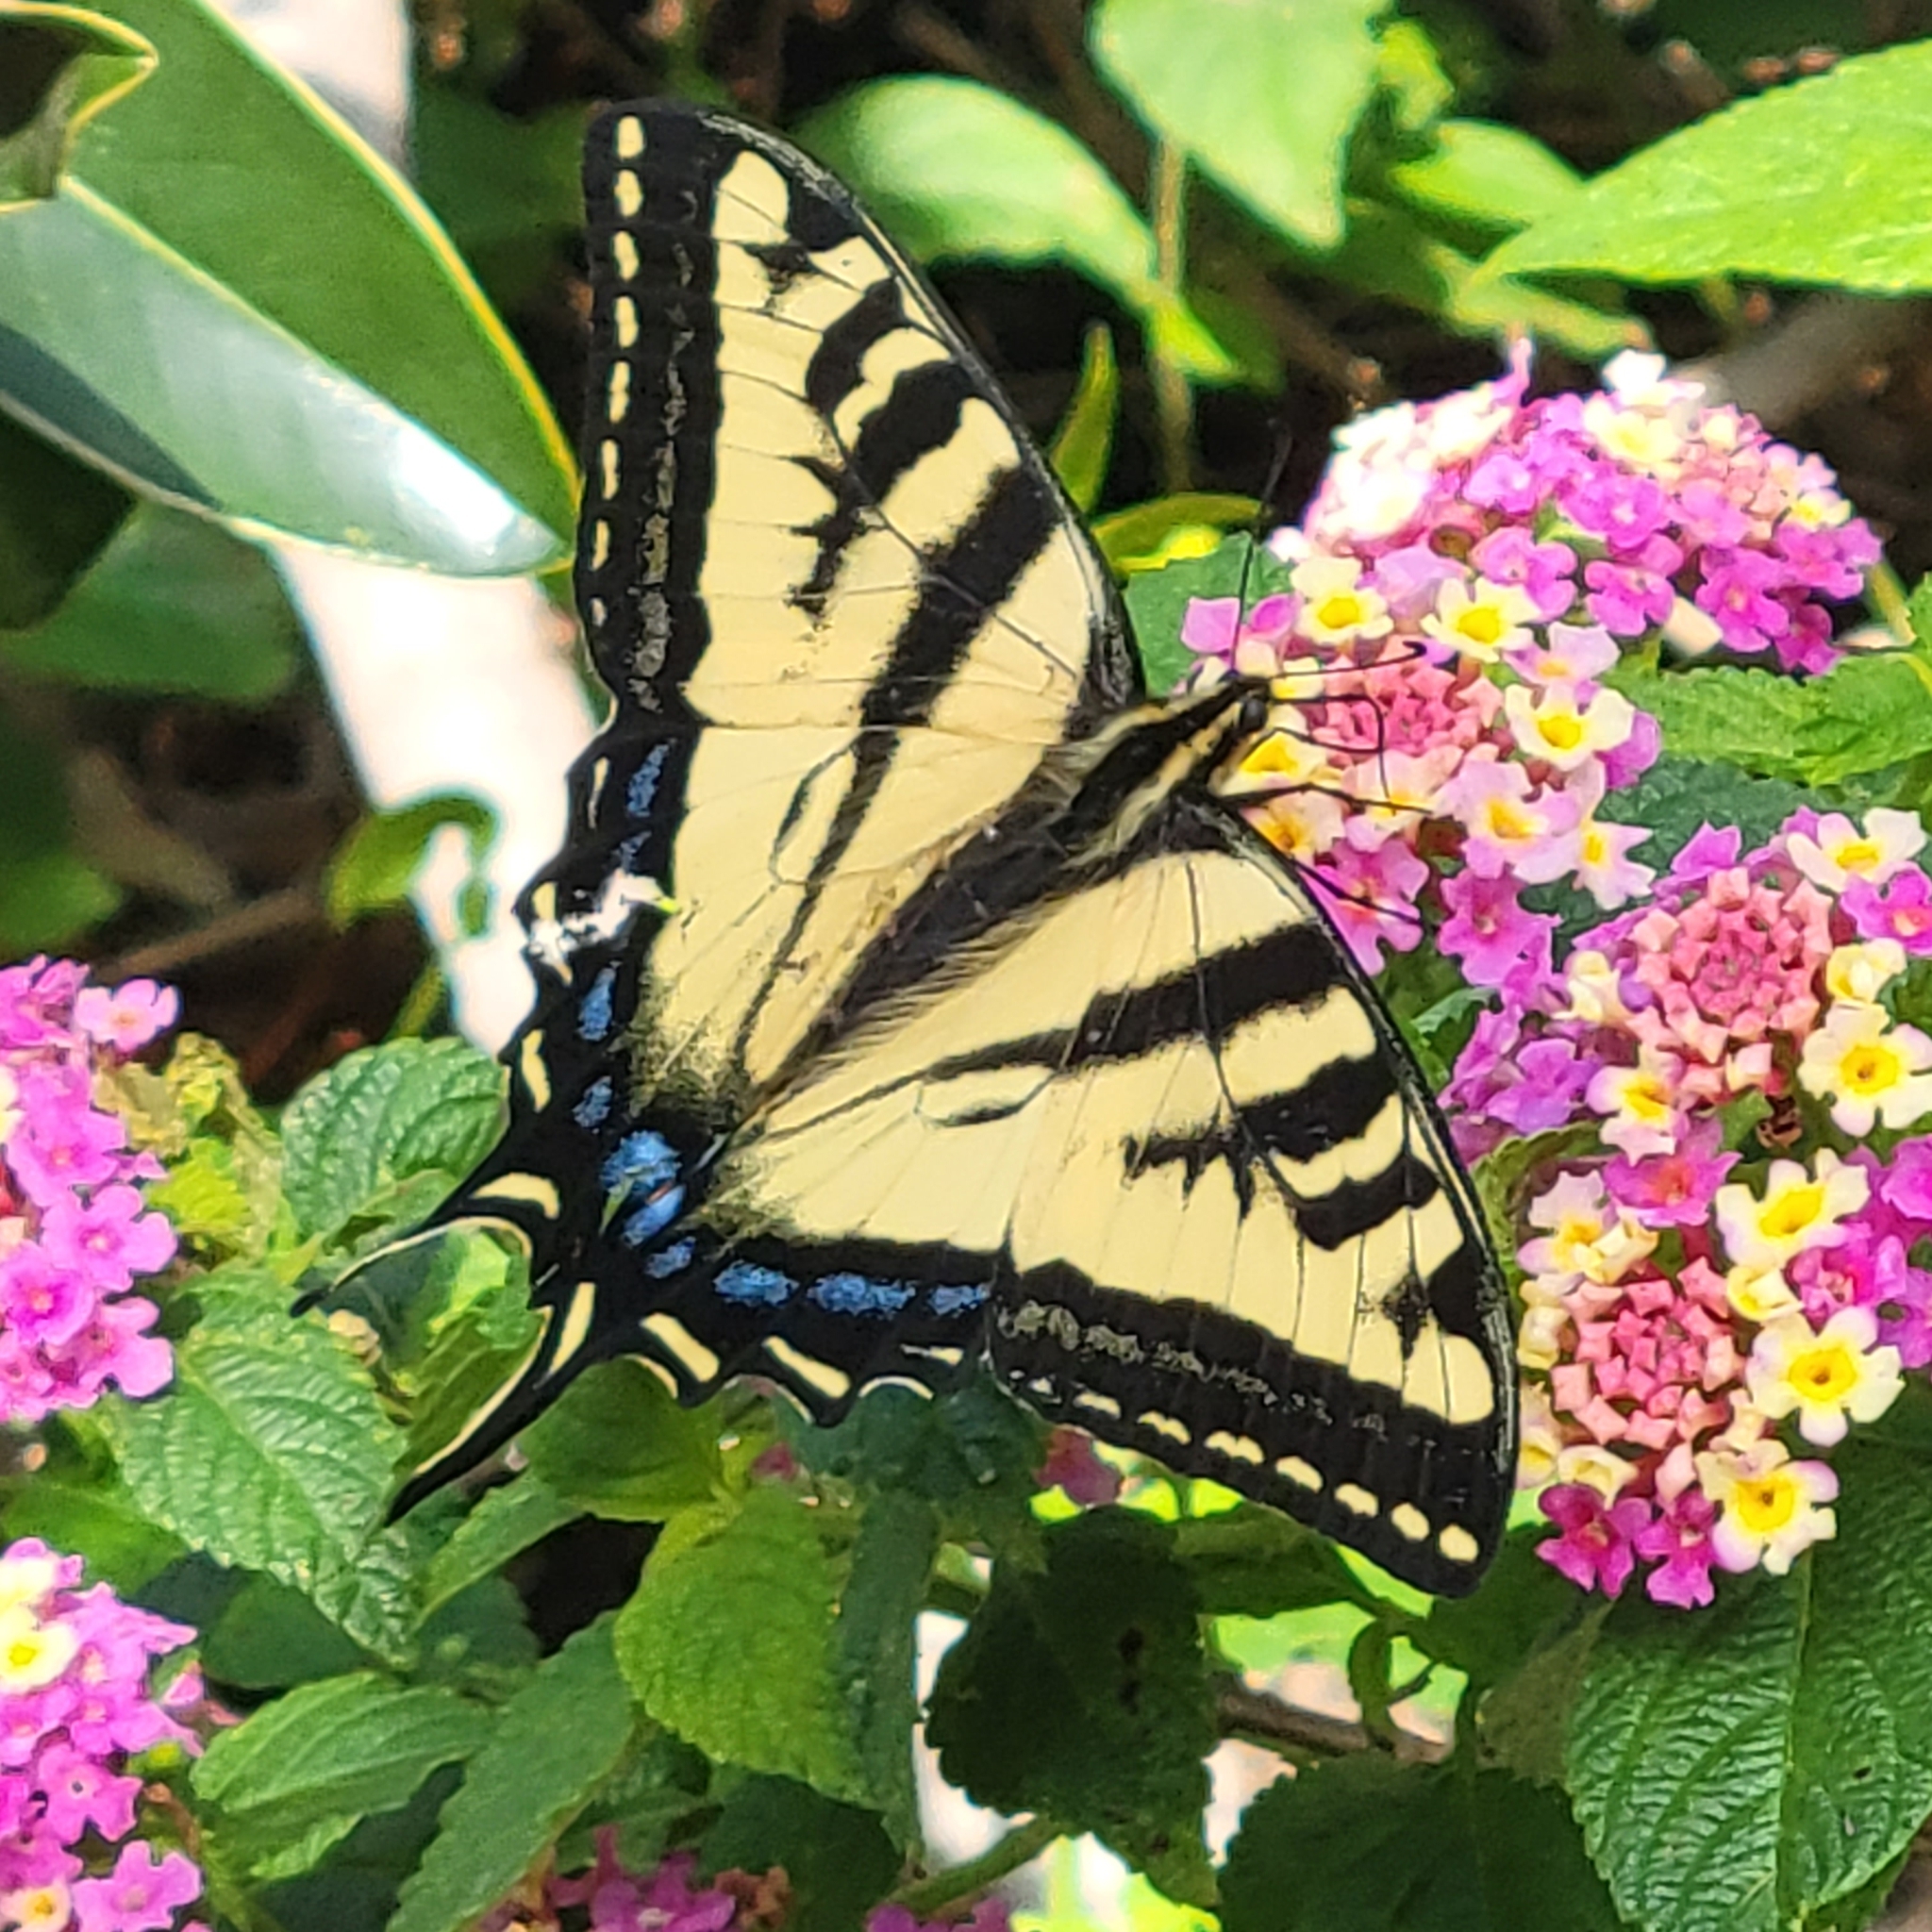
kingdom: Animalia
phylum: Arthropoda
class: Insecta
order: Lepidoptera
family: Papilionidae
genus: Papilio
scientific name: Papilio rutulus
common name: Western tiger swallowtail
